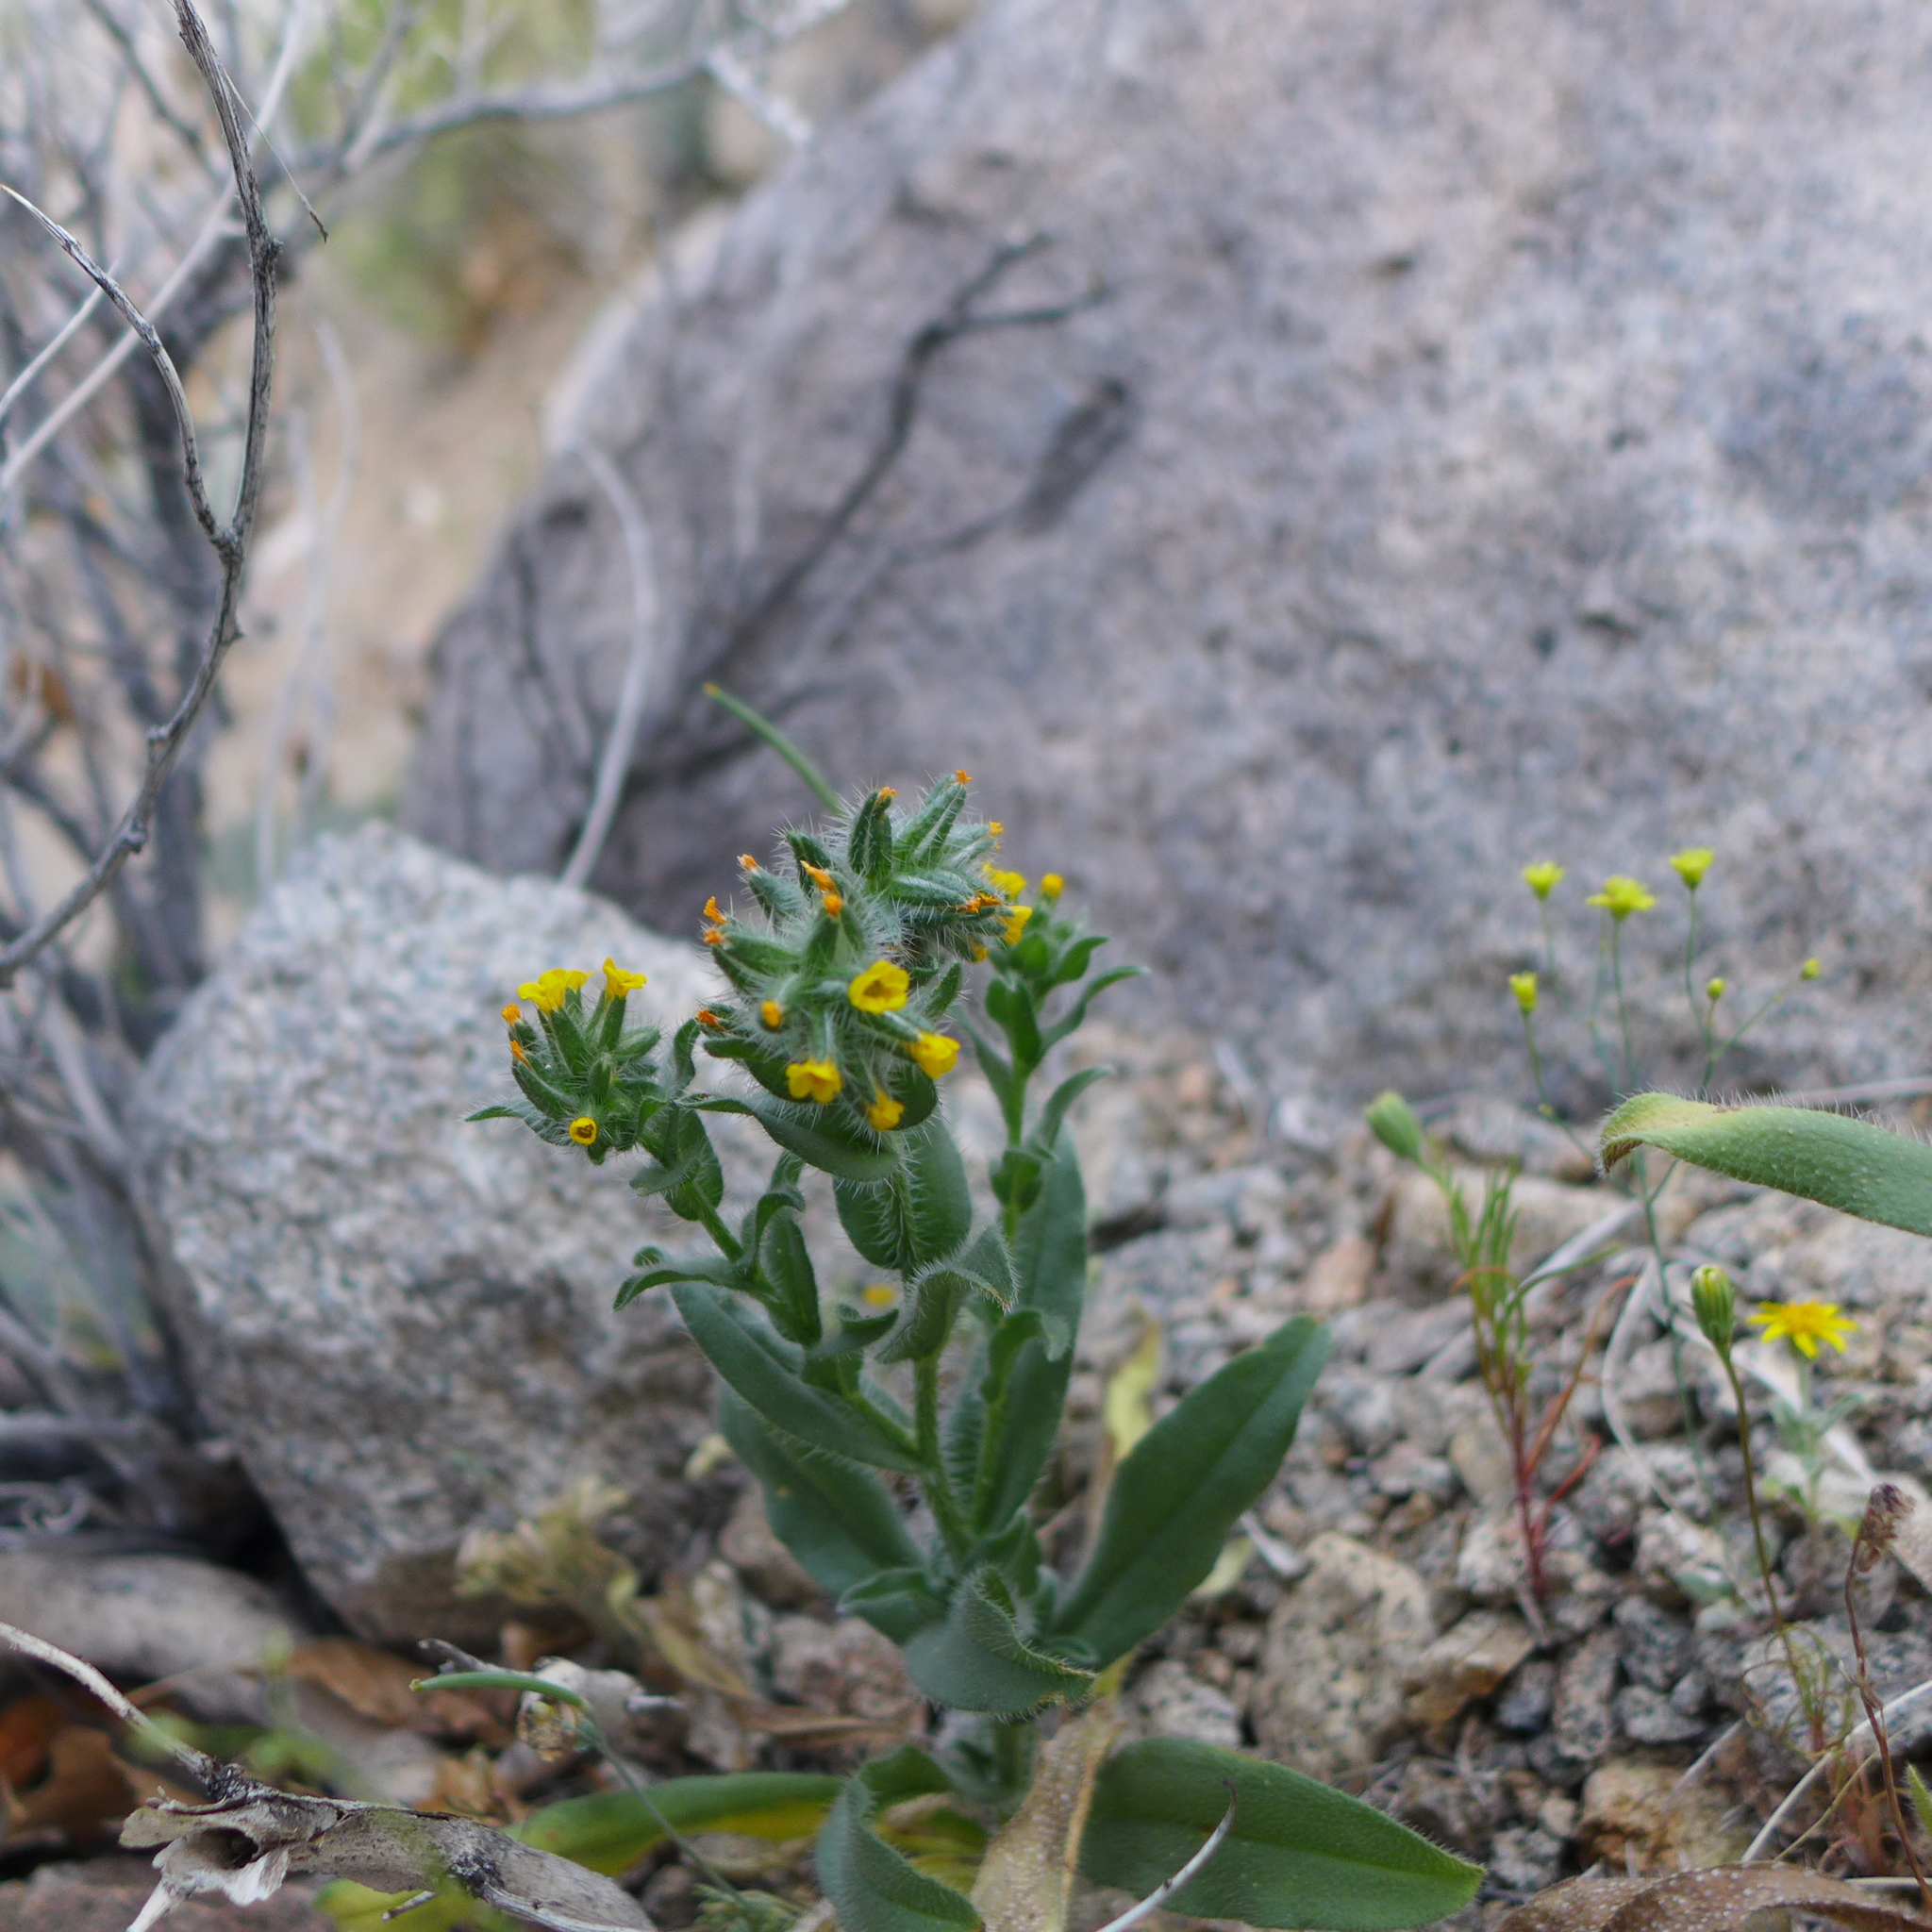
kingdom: Plantae
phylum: Tracheophyta
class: Magnoliopsida
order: Boraginales
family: Boraginaceae
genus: Amsinckia
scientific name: Amsinckia tessellata
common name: Tessellate fiddleneck
